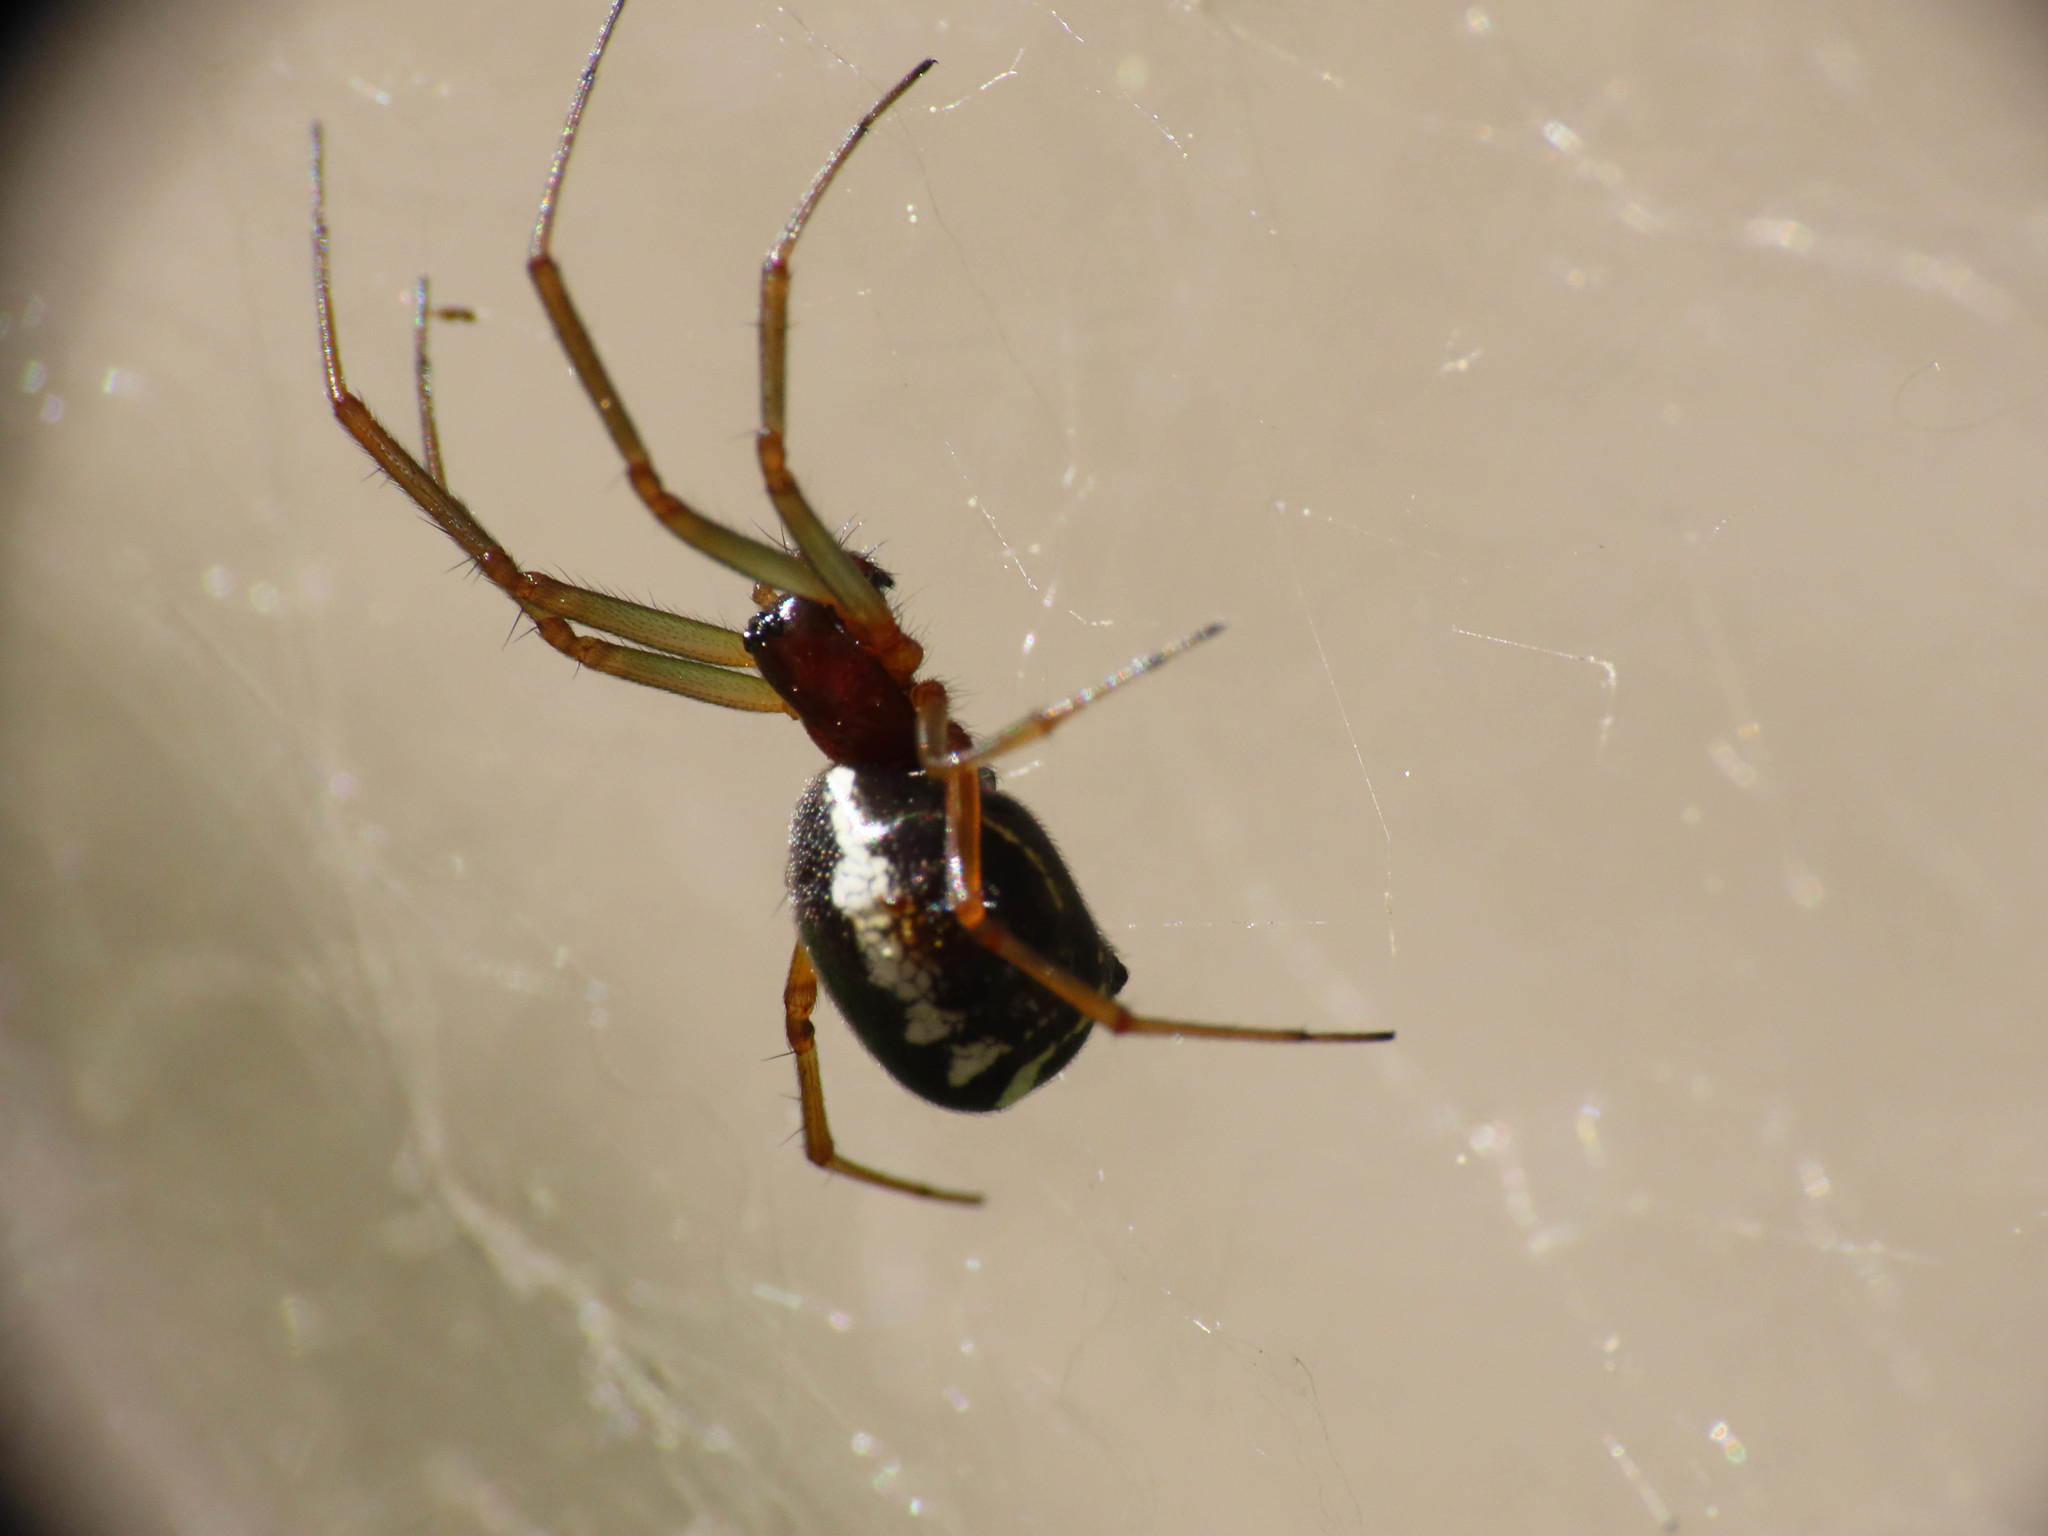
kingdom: Animalia
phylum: Arthropoda
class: Arachnida
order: Araneae
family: Linyphiidae
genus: Frontinellina
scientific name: Frontinellina frutetorum
